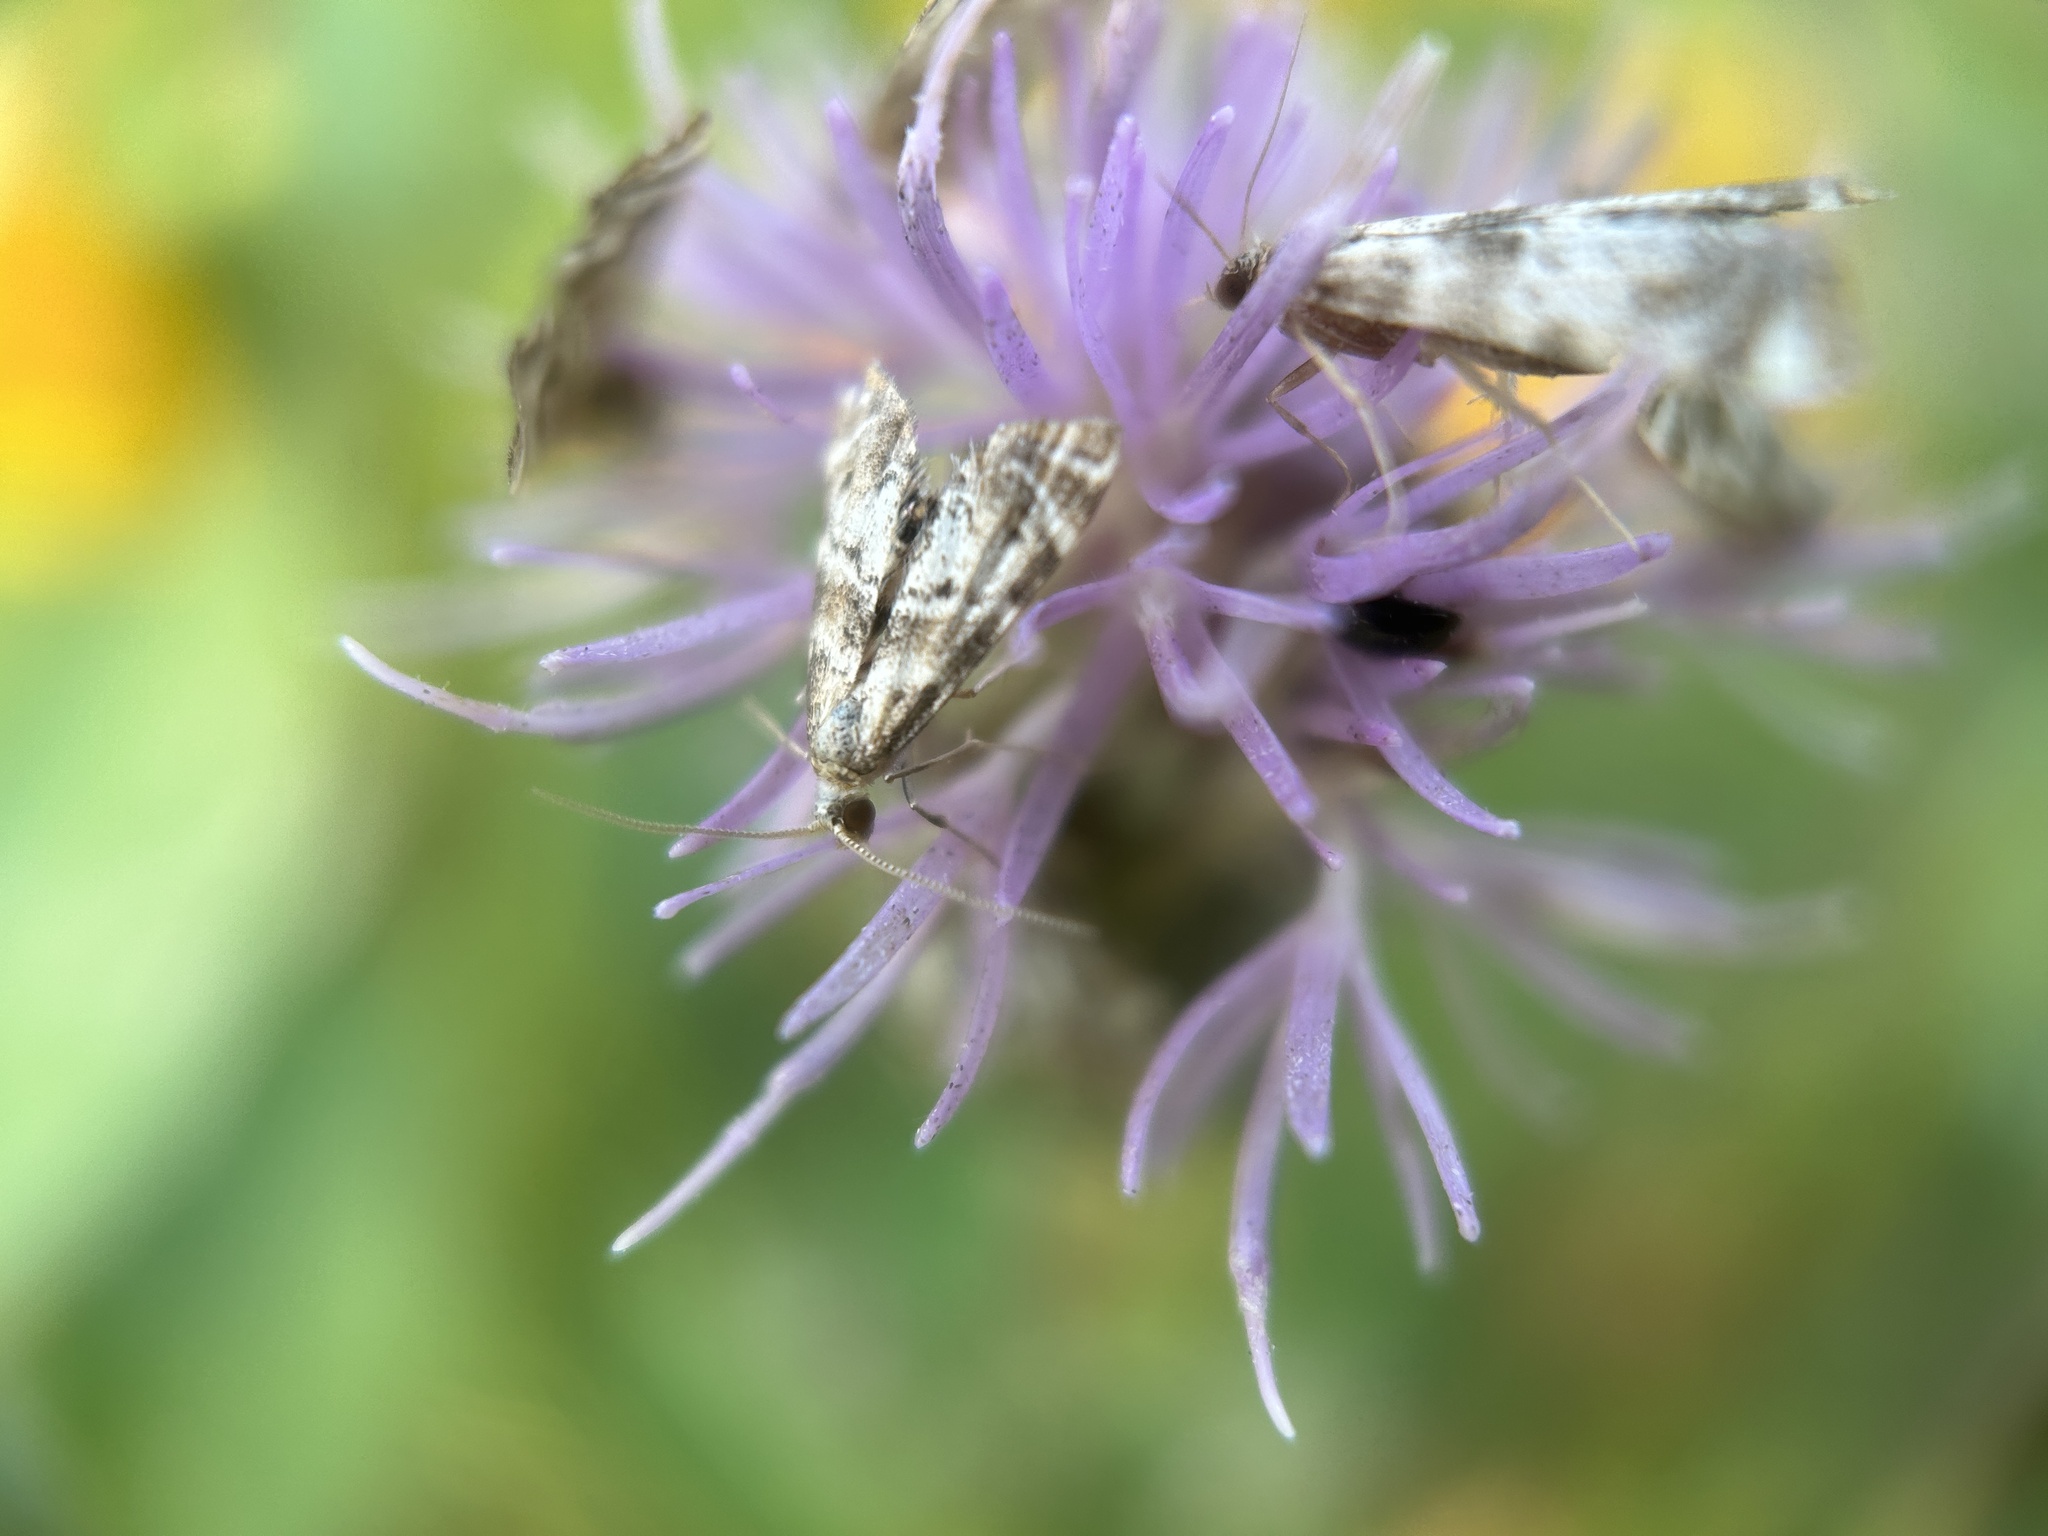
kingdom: Animalia
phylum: Arthropoda
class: Insecta
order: Lepidoptera
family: Crambidae
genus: Petrophila
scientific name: Petrophila fulicalis
